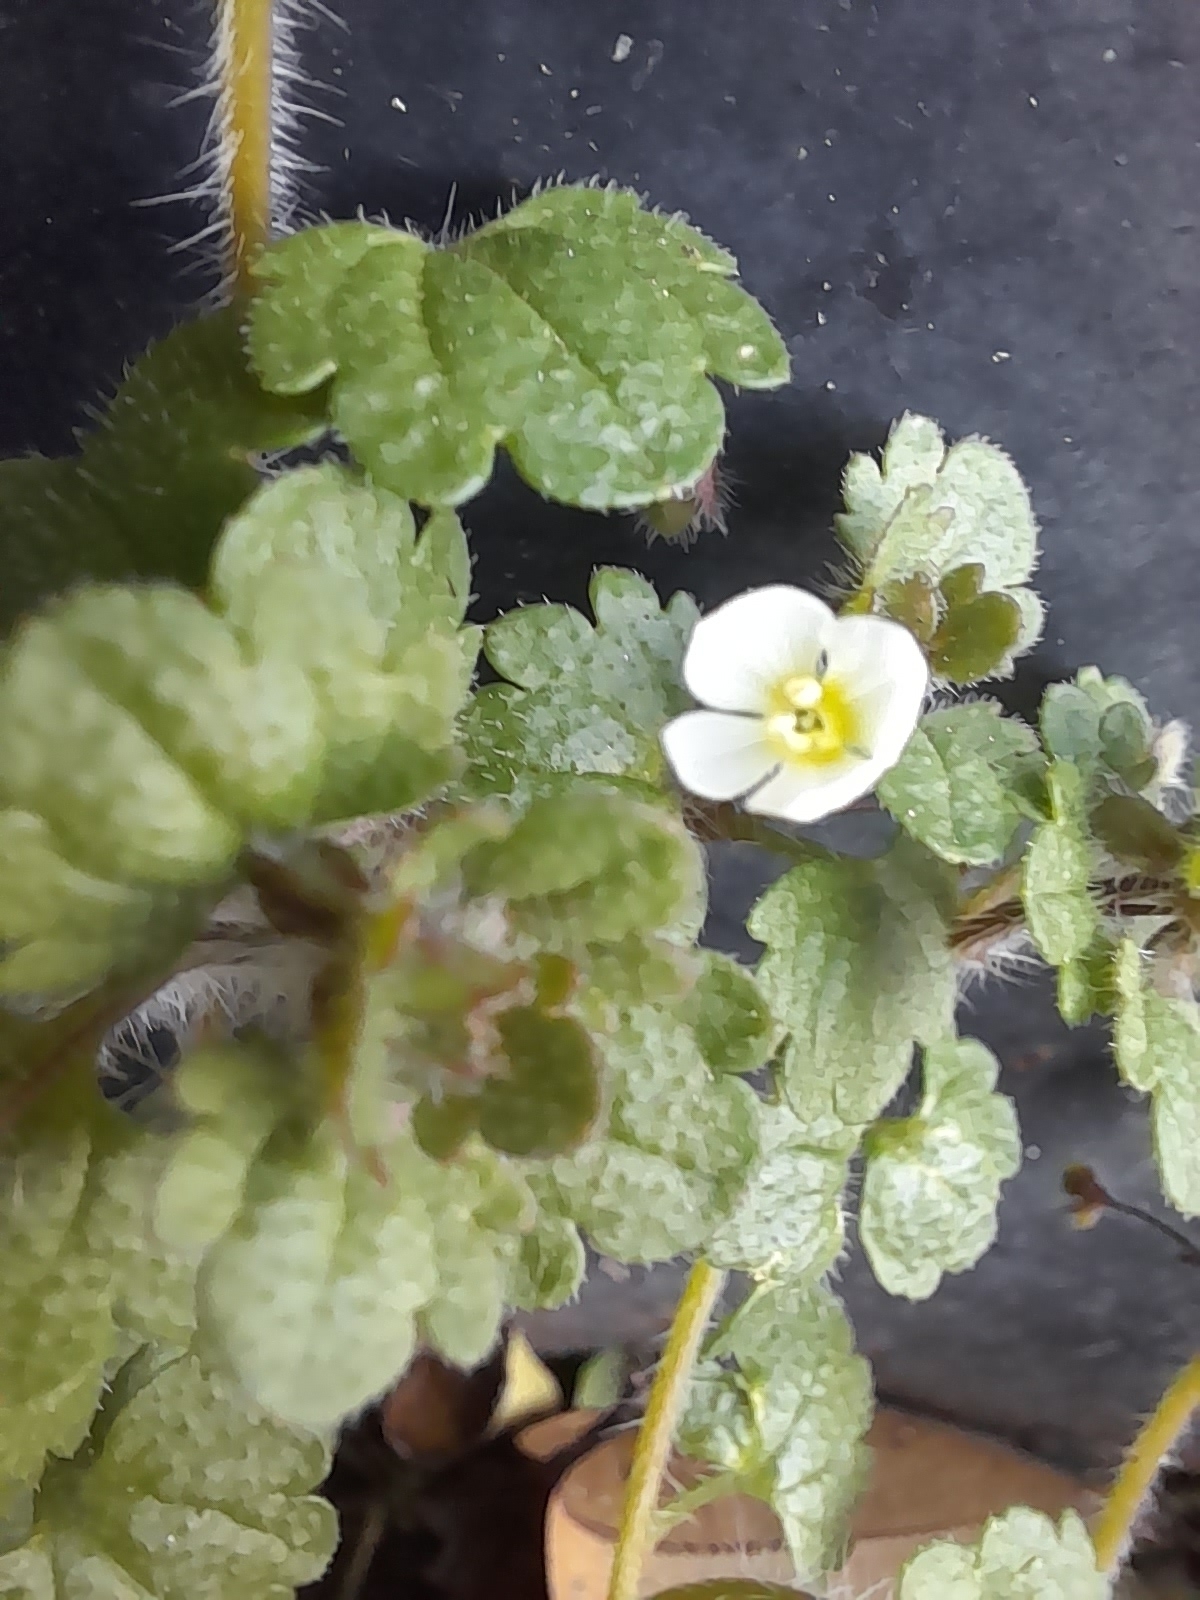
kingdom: Plantae
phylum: Tracheophyta
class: Magnoliopsida
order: Lamiales
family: Plantaginaceae
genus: Veronica
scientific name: Veronica cymbalaria
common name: Pale speedwell
